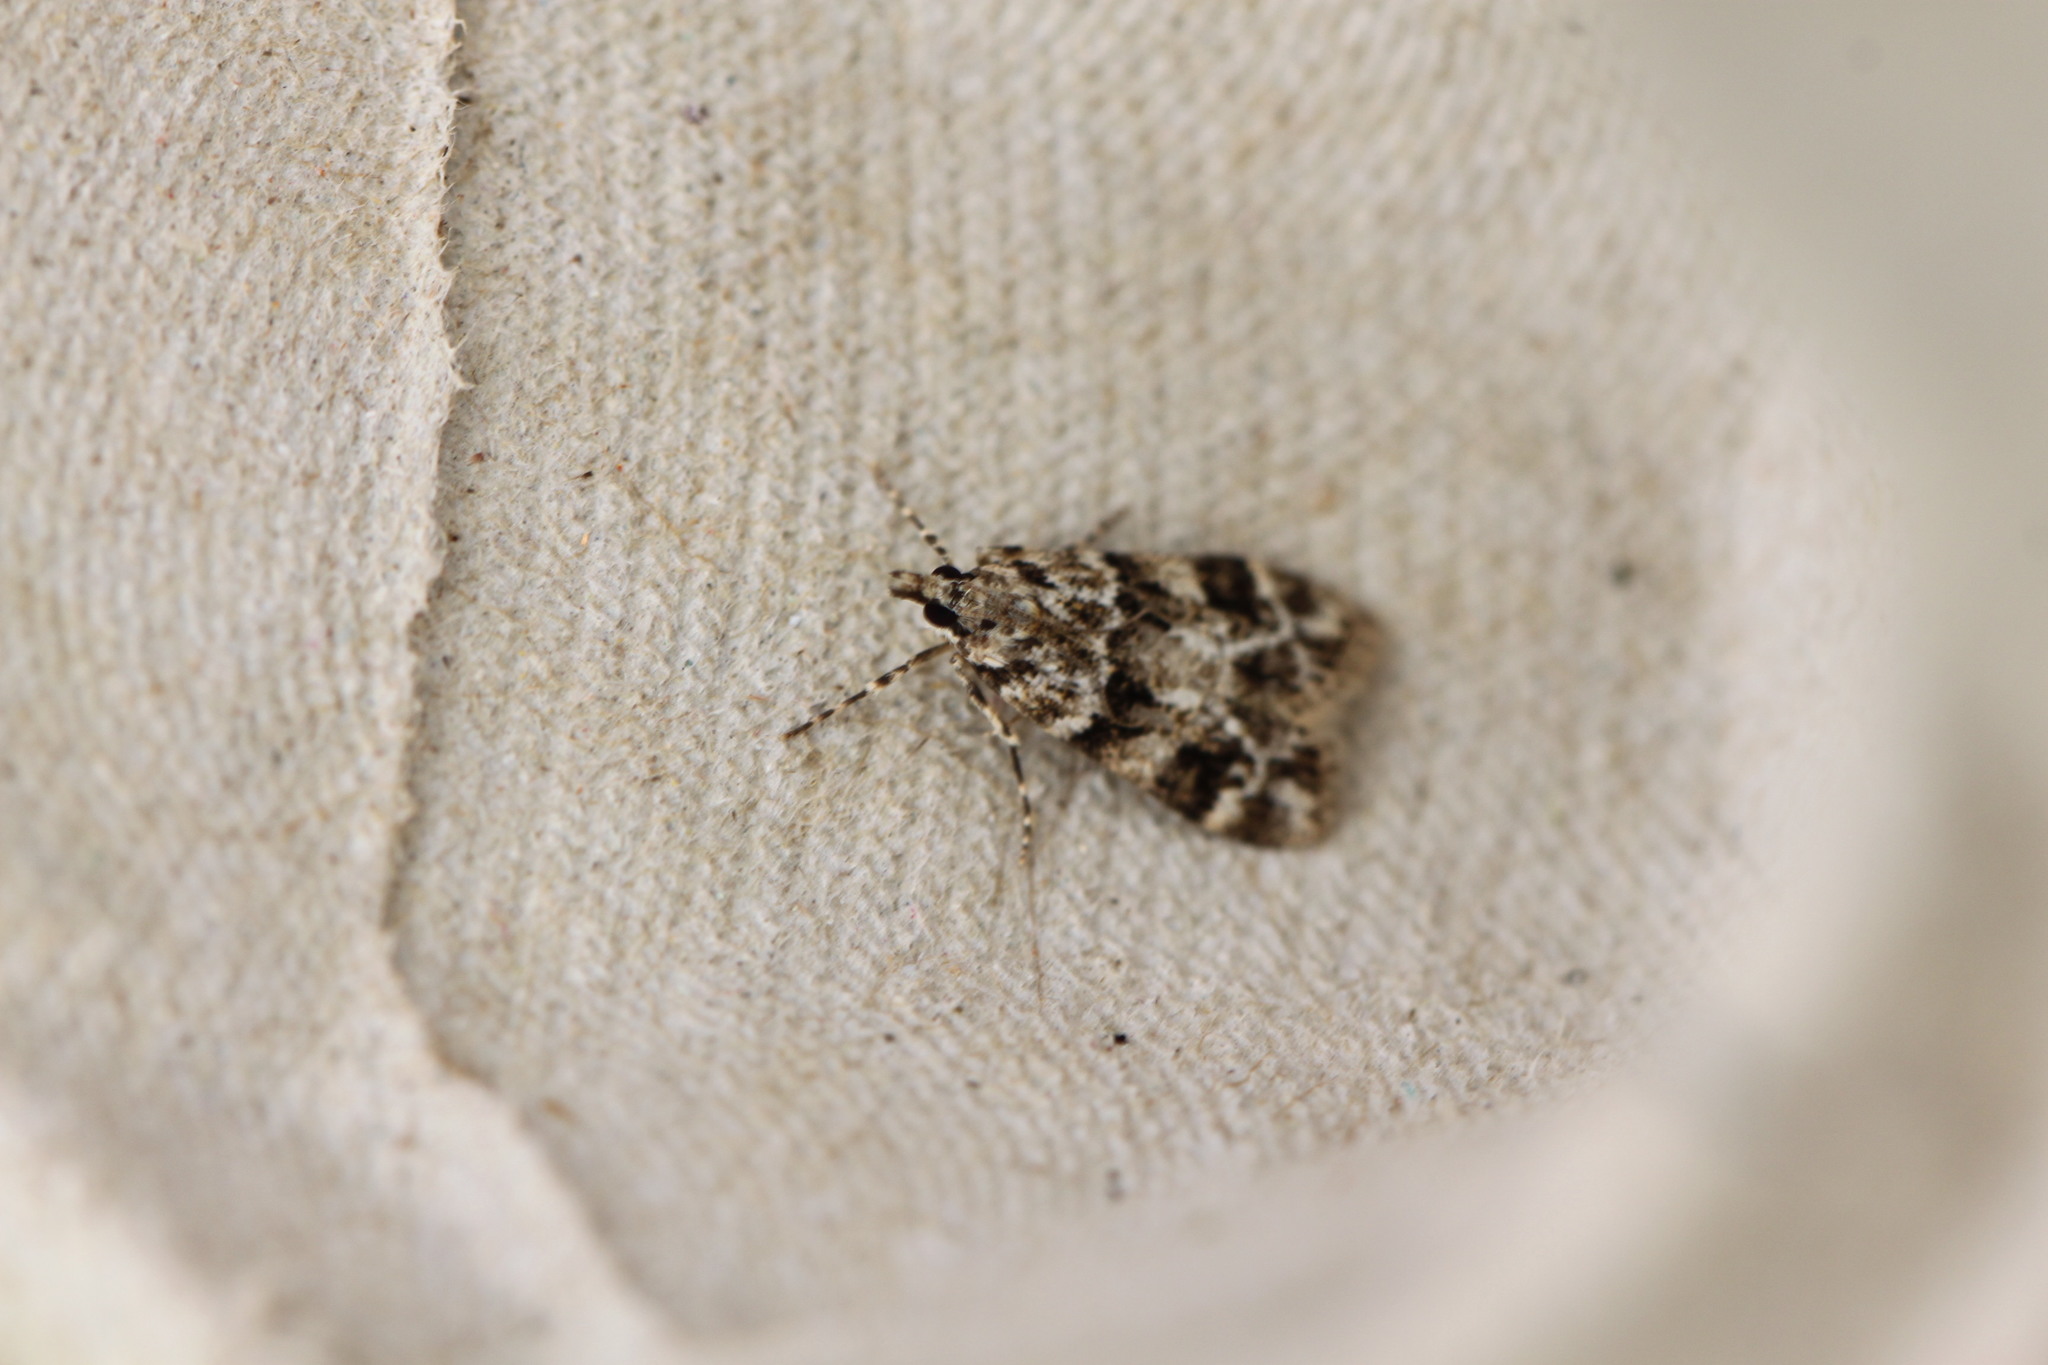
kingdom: Animalia
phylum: Arthropoda
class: Insecta
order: Lepidoptera
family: Crambidae
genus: Eudonia
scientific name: Eudonia delunella
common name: Pied grey
